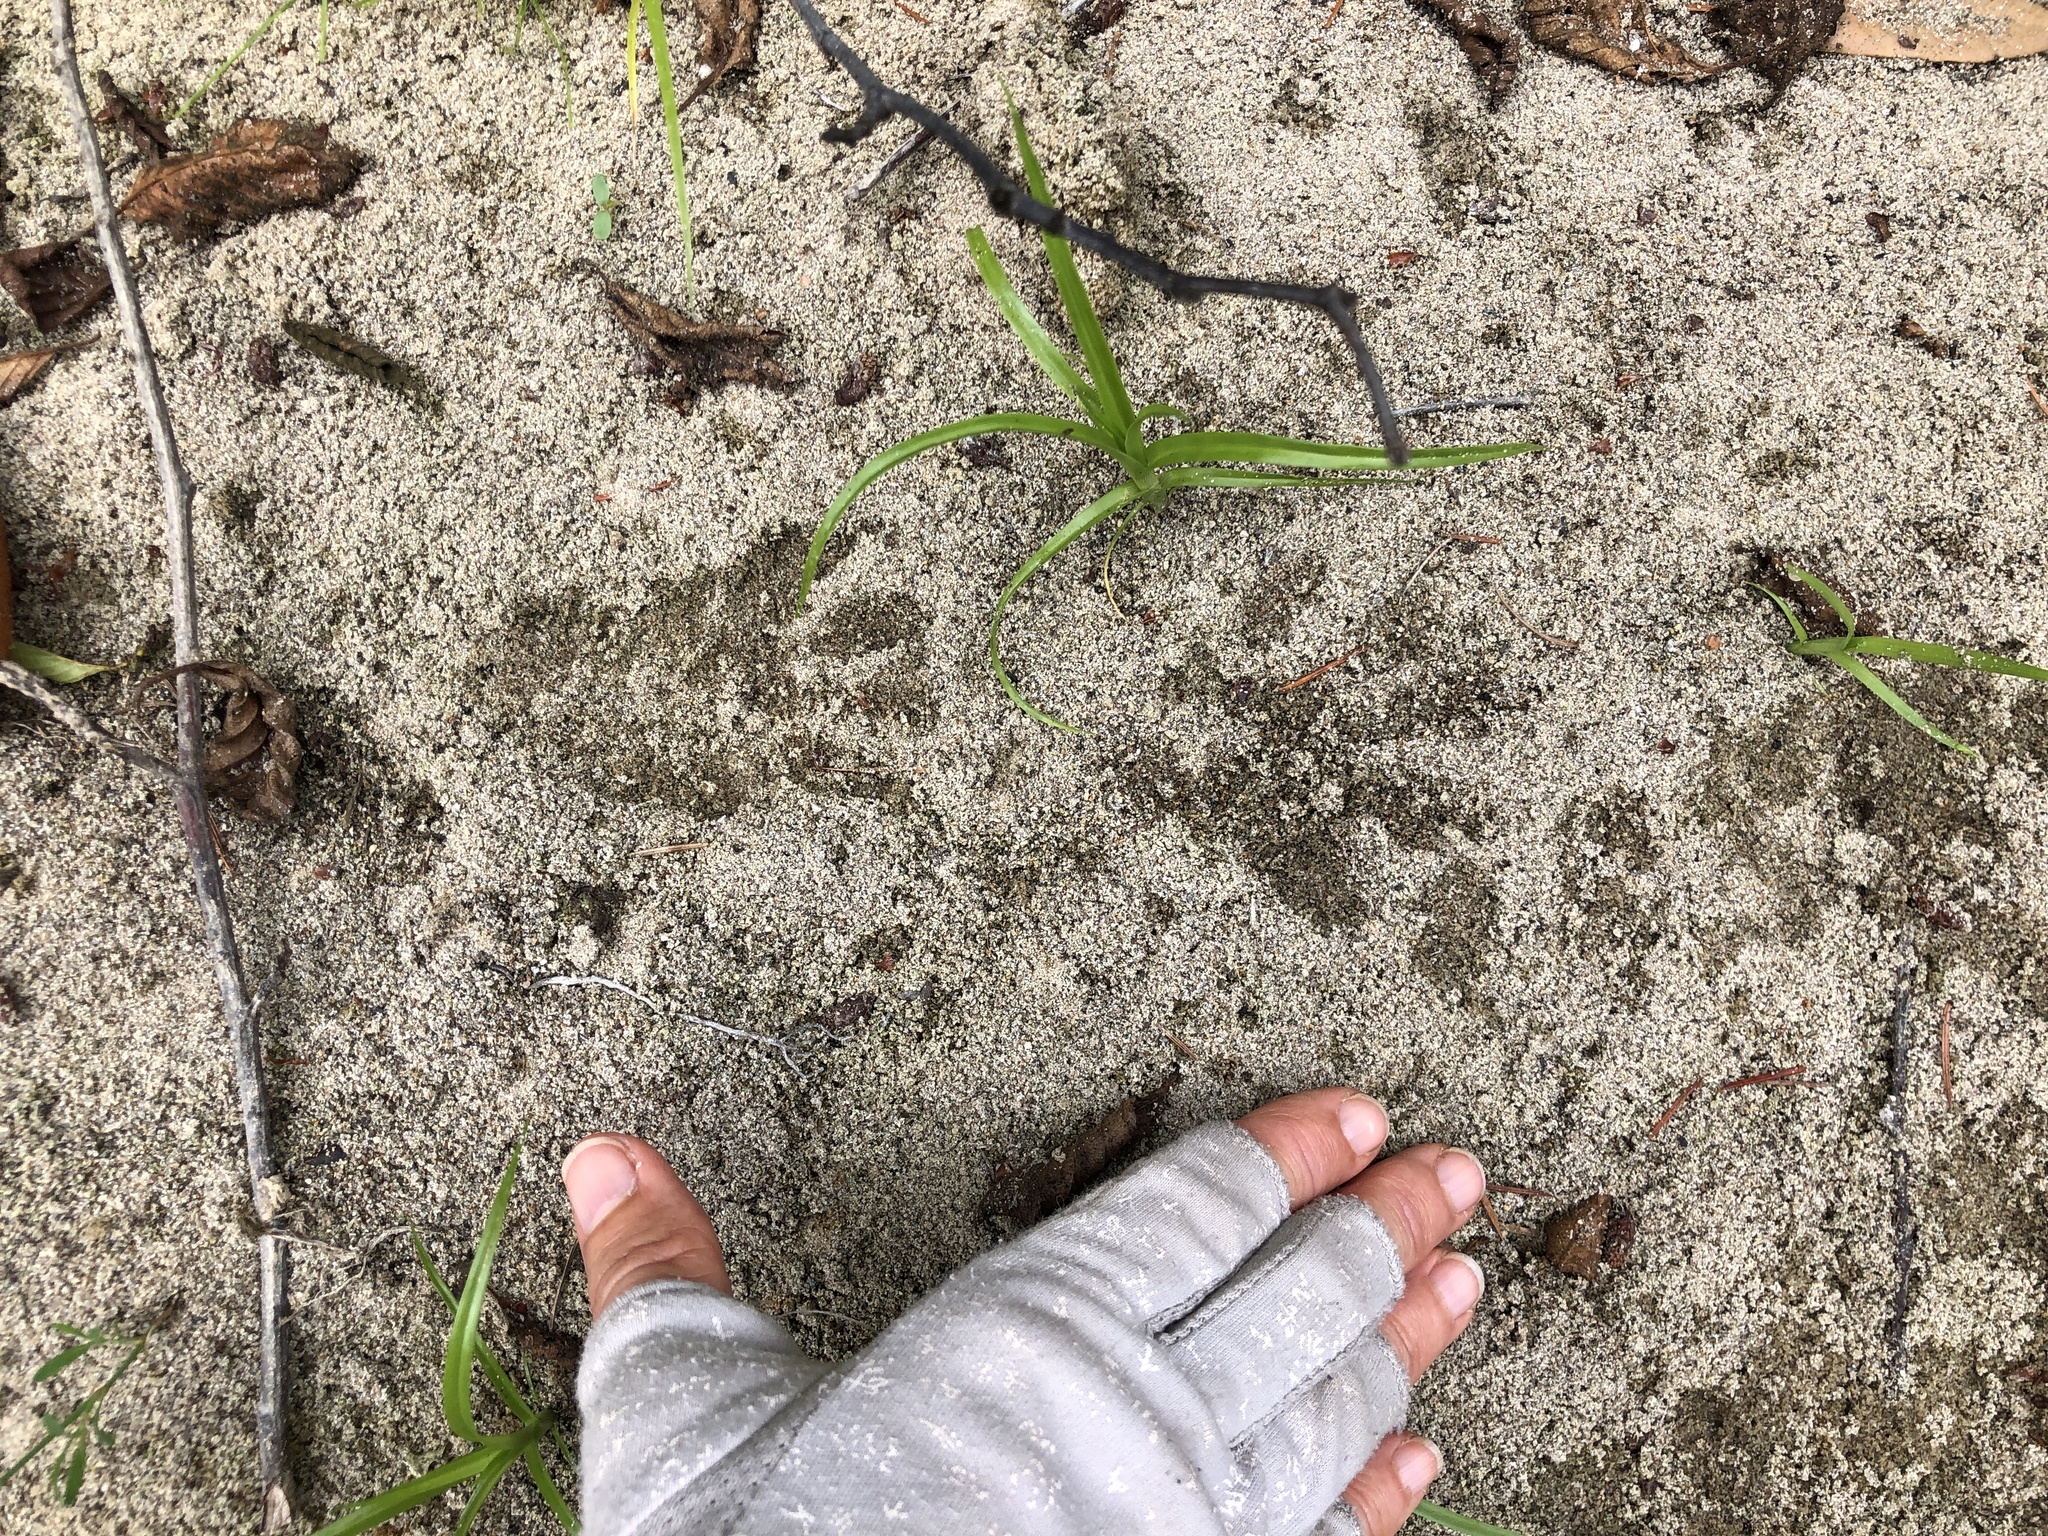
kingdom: Animalia
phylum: Chordata
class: Mammalia
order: Carnivora
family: Procyonidae
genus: Procyon
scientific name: Procyon lotor
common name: Raccoon
